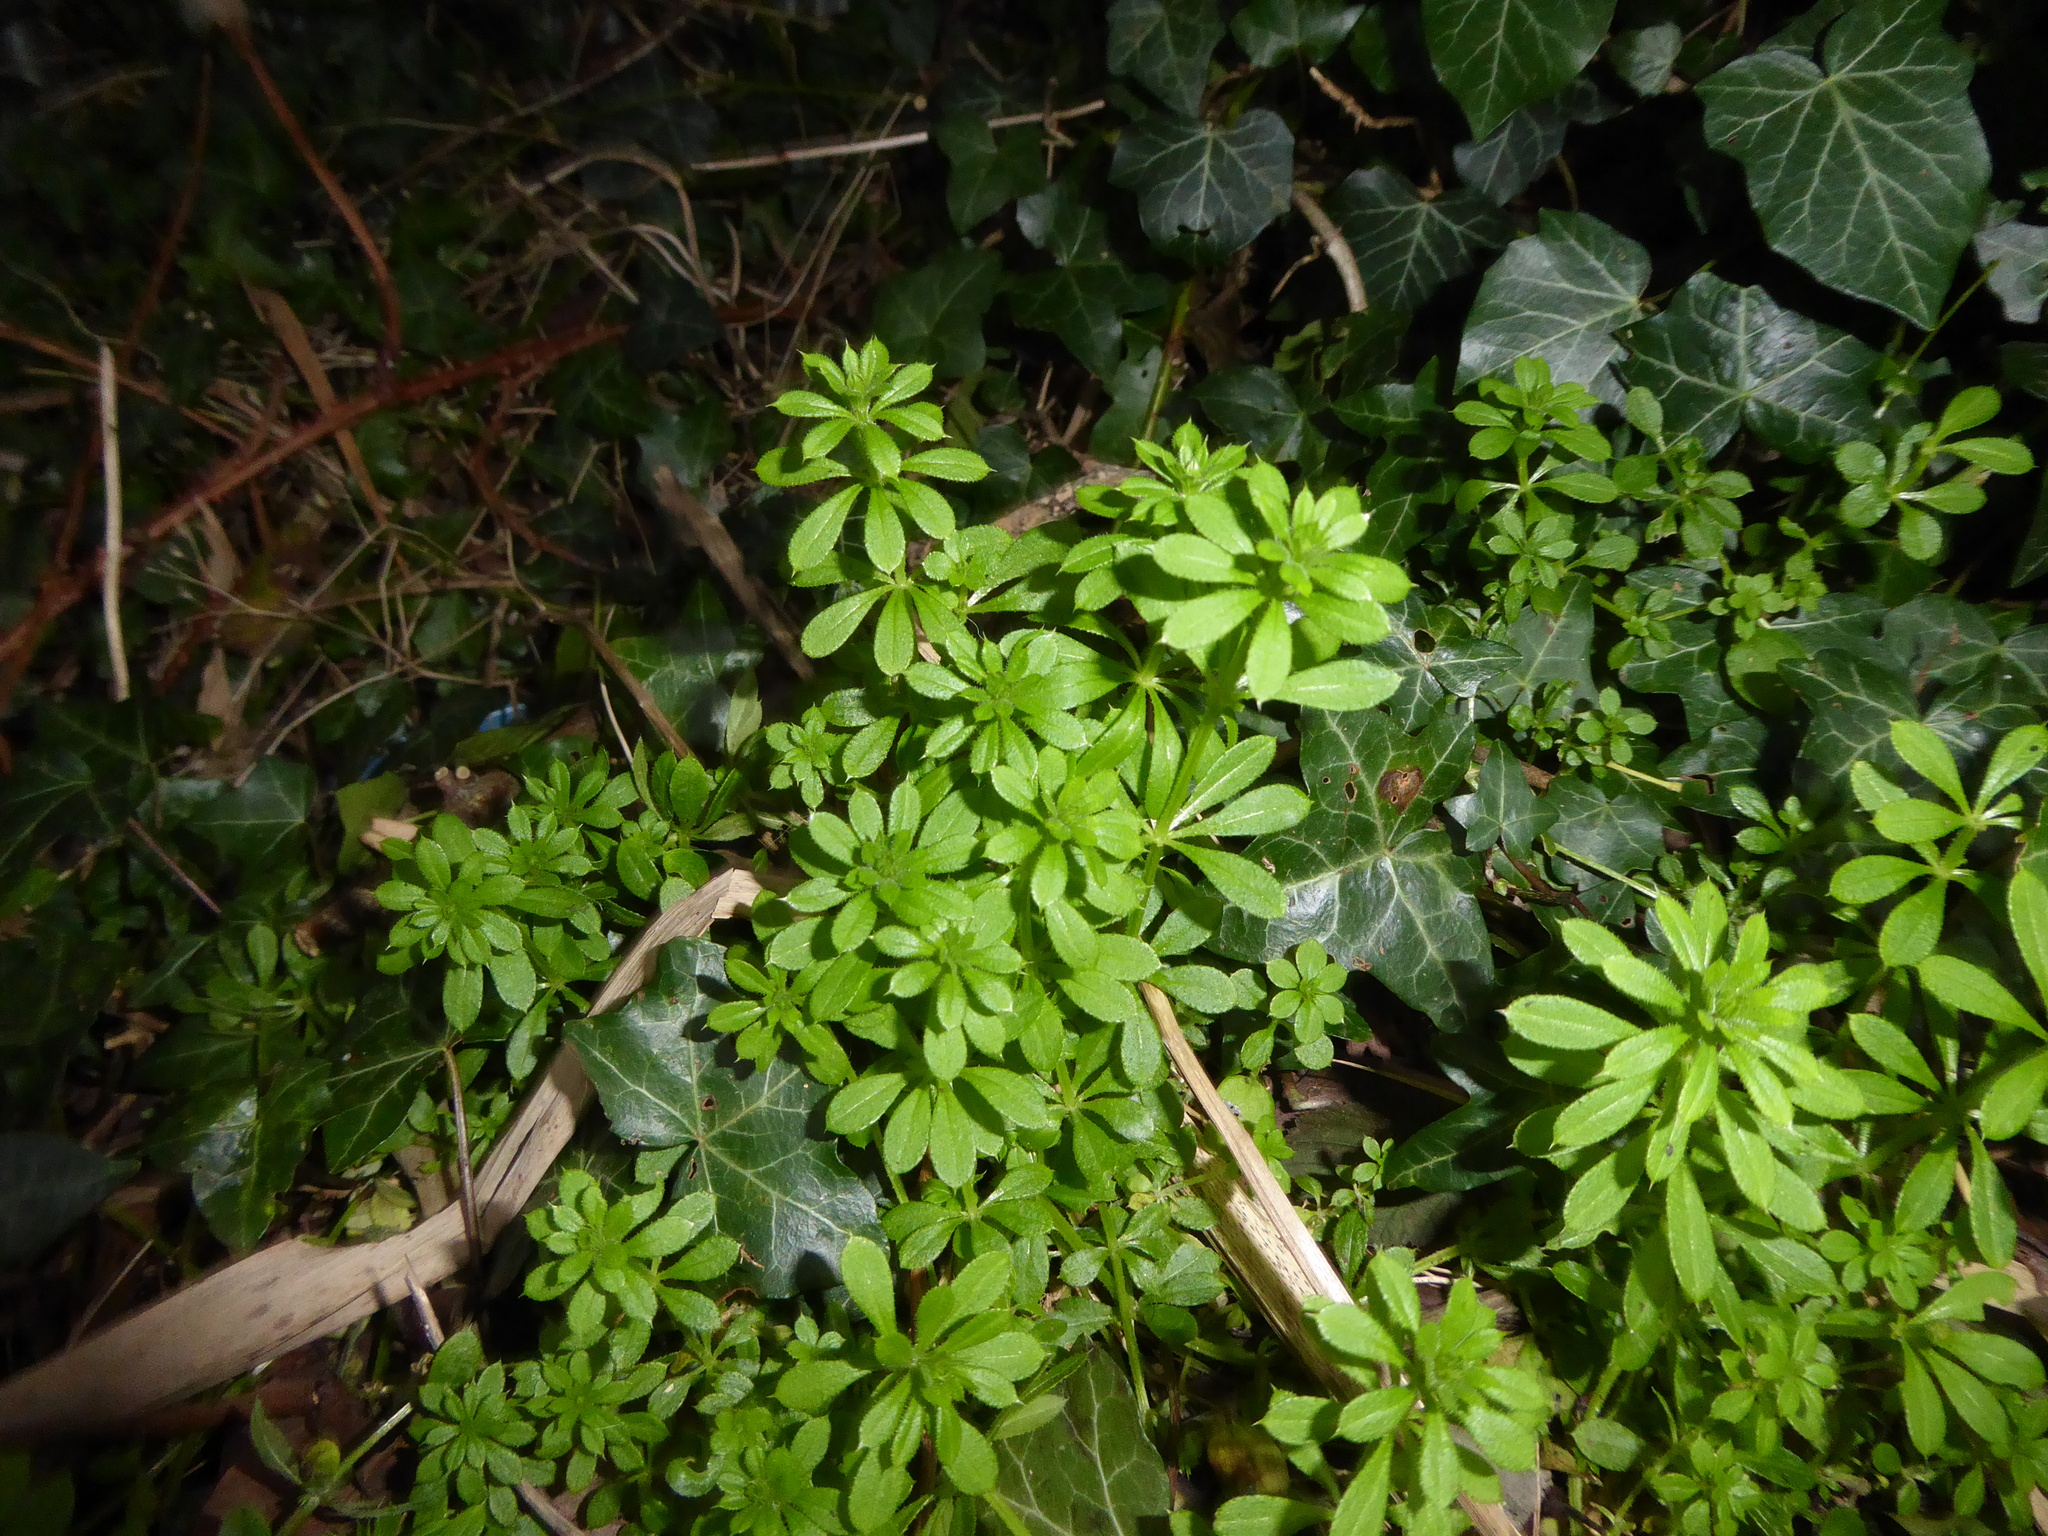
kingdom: Plantae
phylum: Tracheophyta
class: Magnoliopsida
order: Gentianales
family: Rubiaceae
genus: Galium
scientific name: Galium aparine
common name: Cleavers
